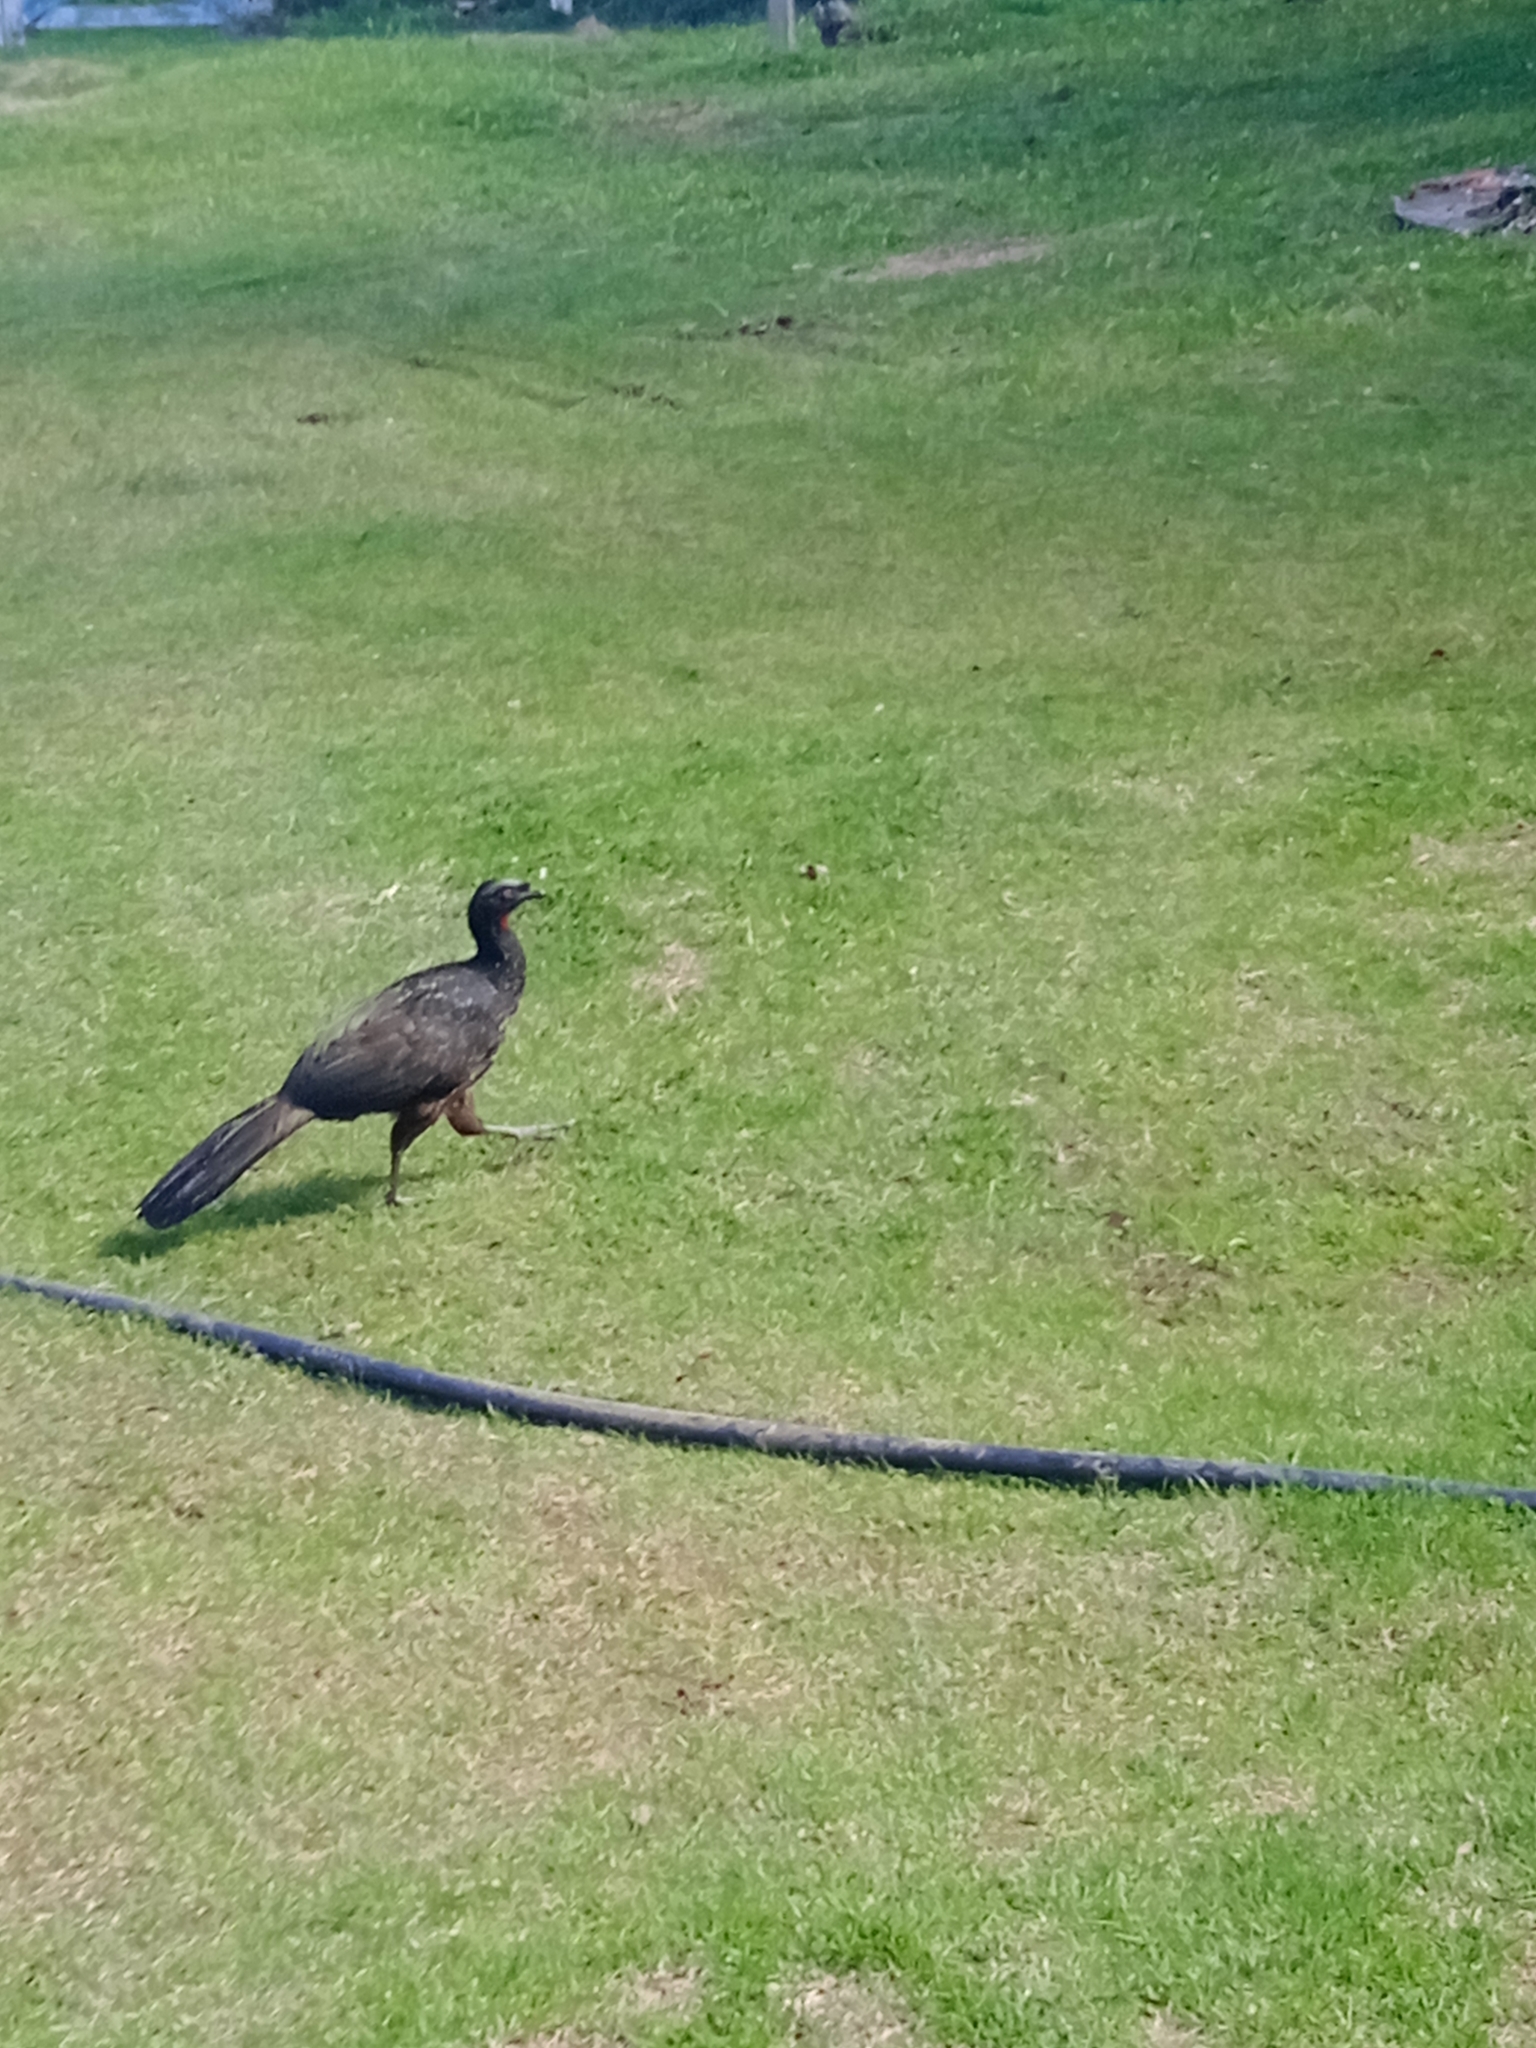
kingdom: Animalia
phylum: Chordata
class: Aves
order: Galliformes
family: Cracidae
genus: Penelope
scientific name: Penelope obscura
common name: Dusky-legged guan
